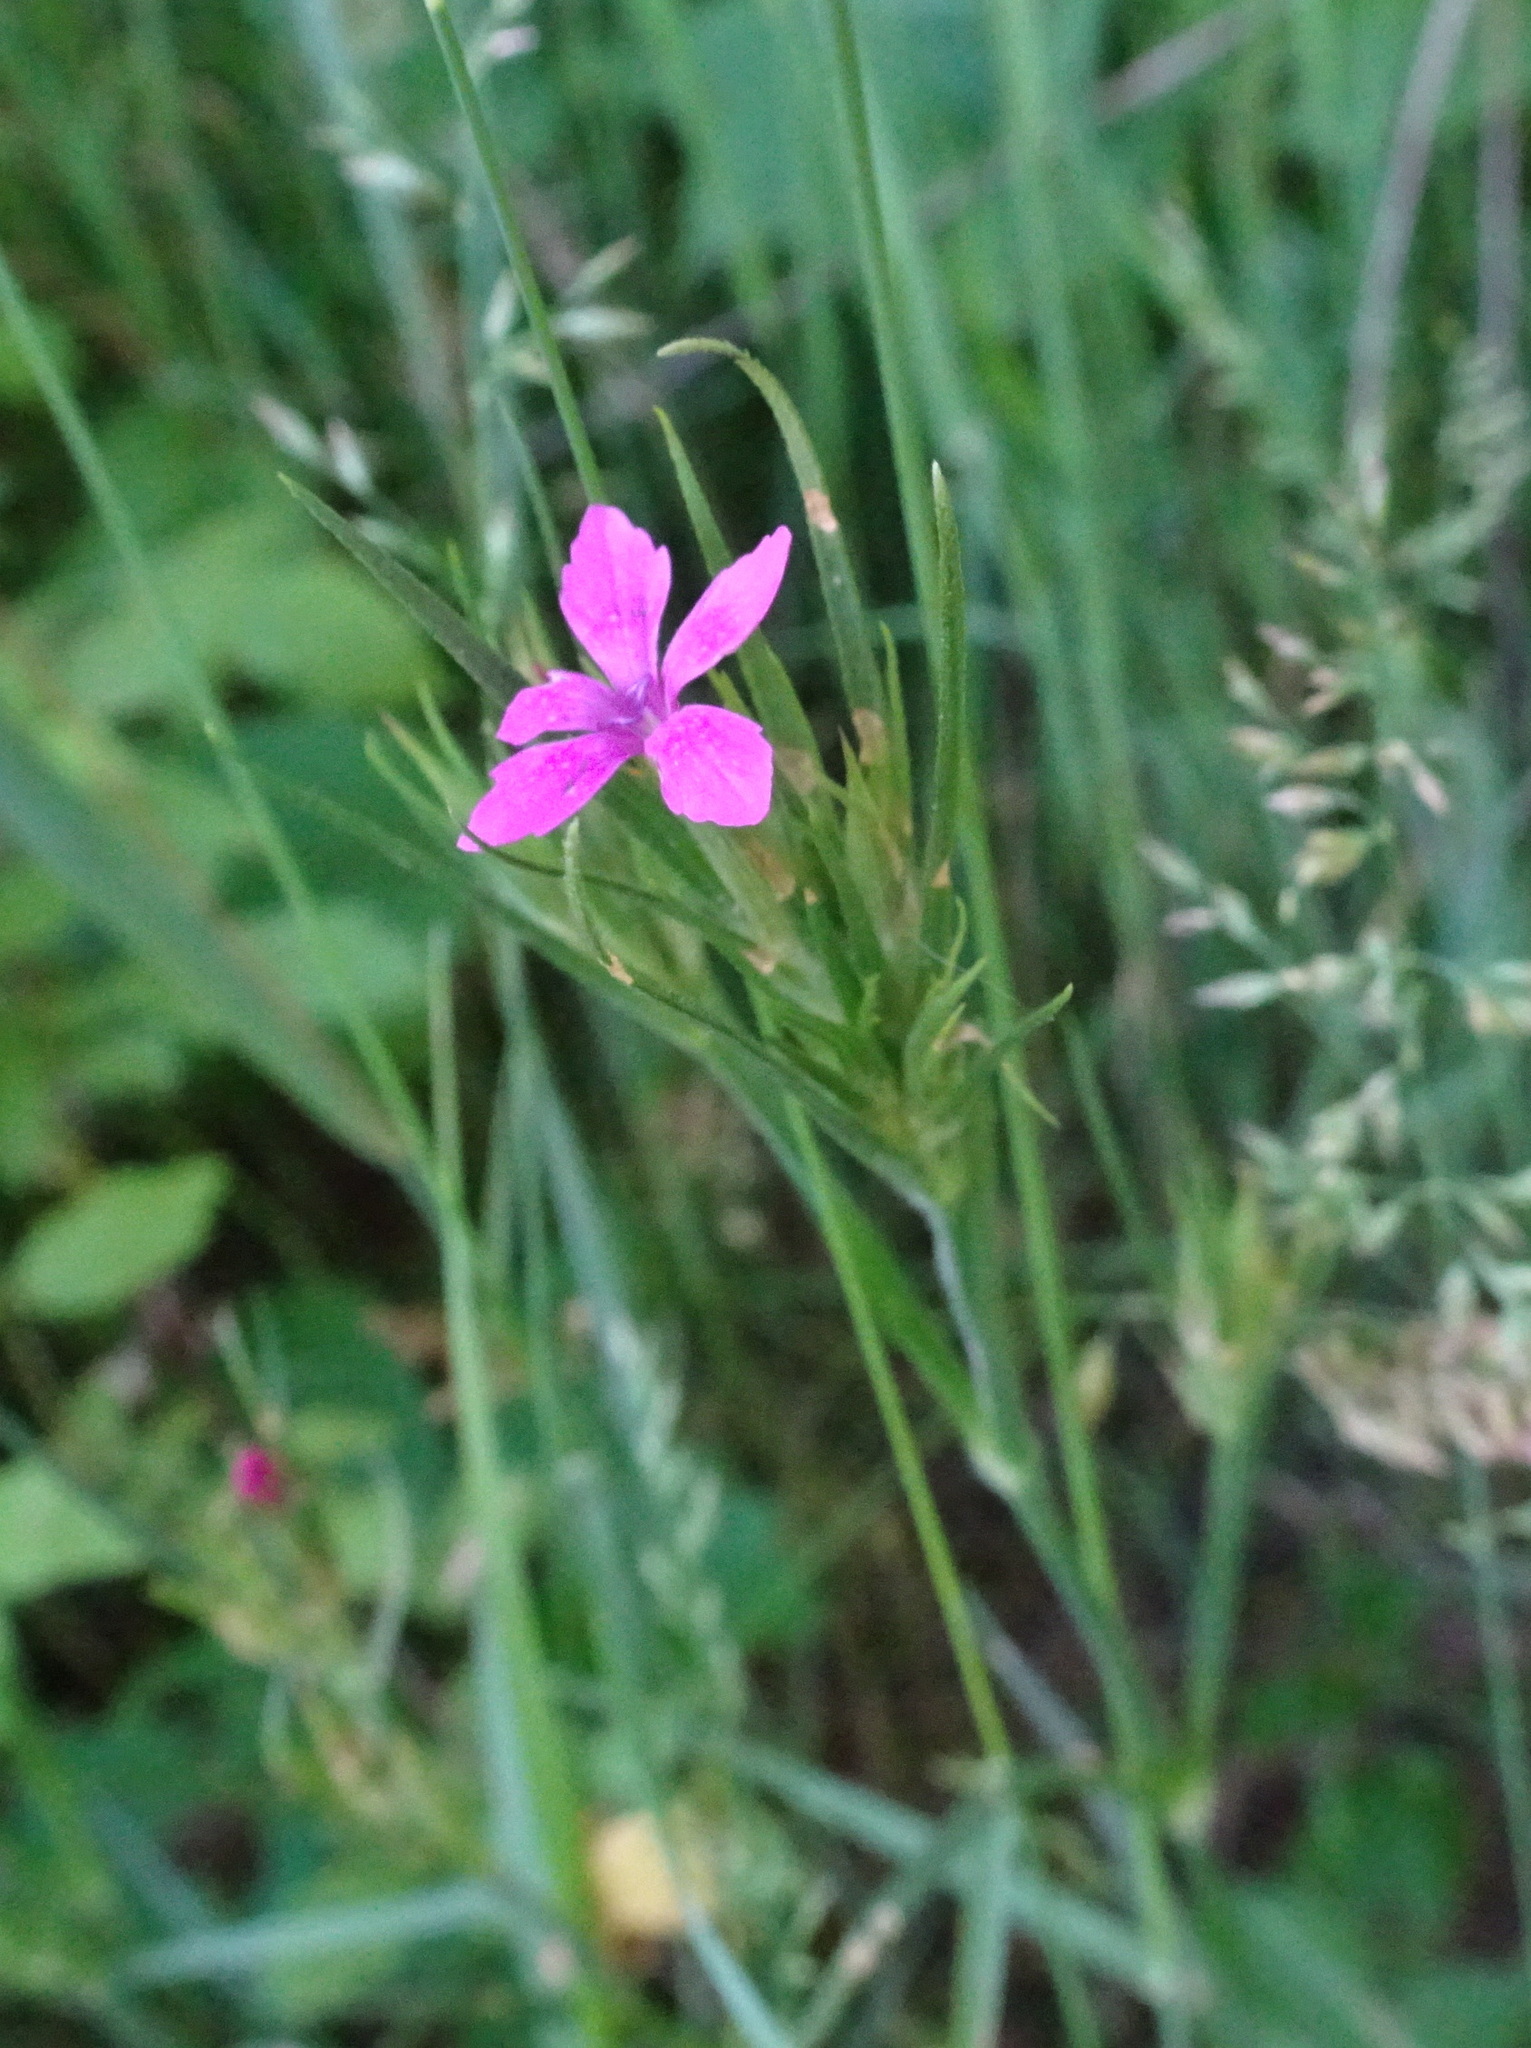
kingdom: Plantae
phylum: Tracheophyta
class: Magnoliopsida
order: Caryophyllales
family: Caryophyllaceae
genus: Dianthus
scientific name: Dianthus armeria
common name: Deptford pink
